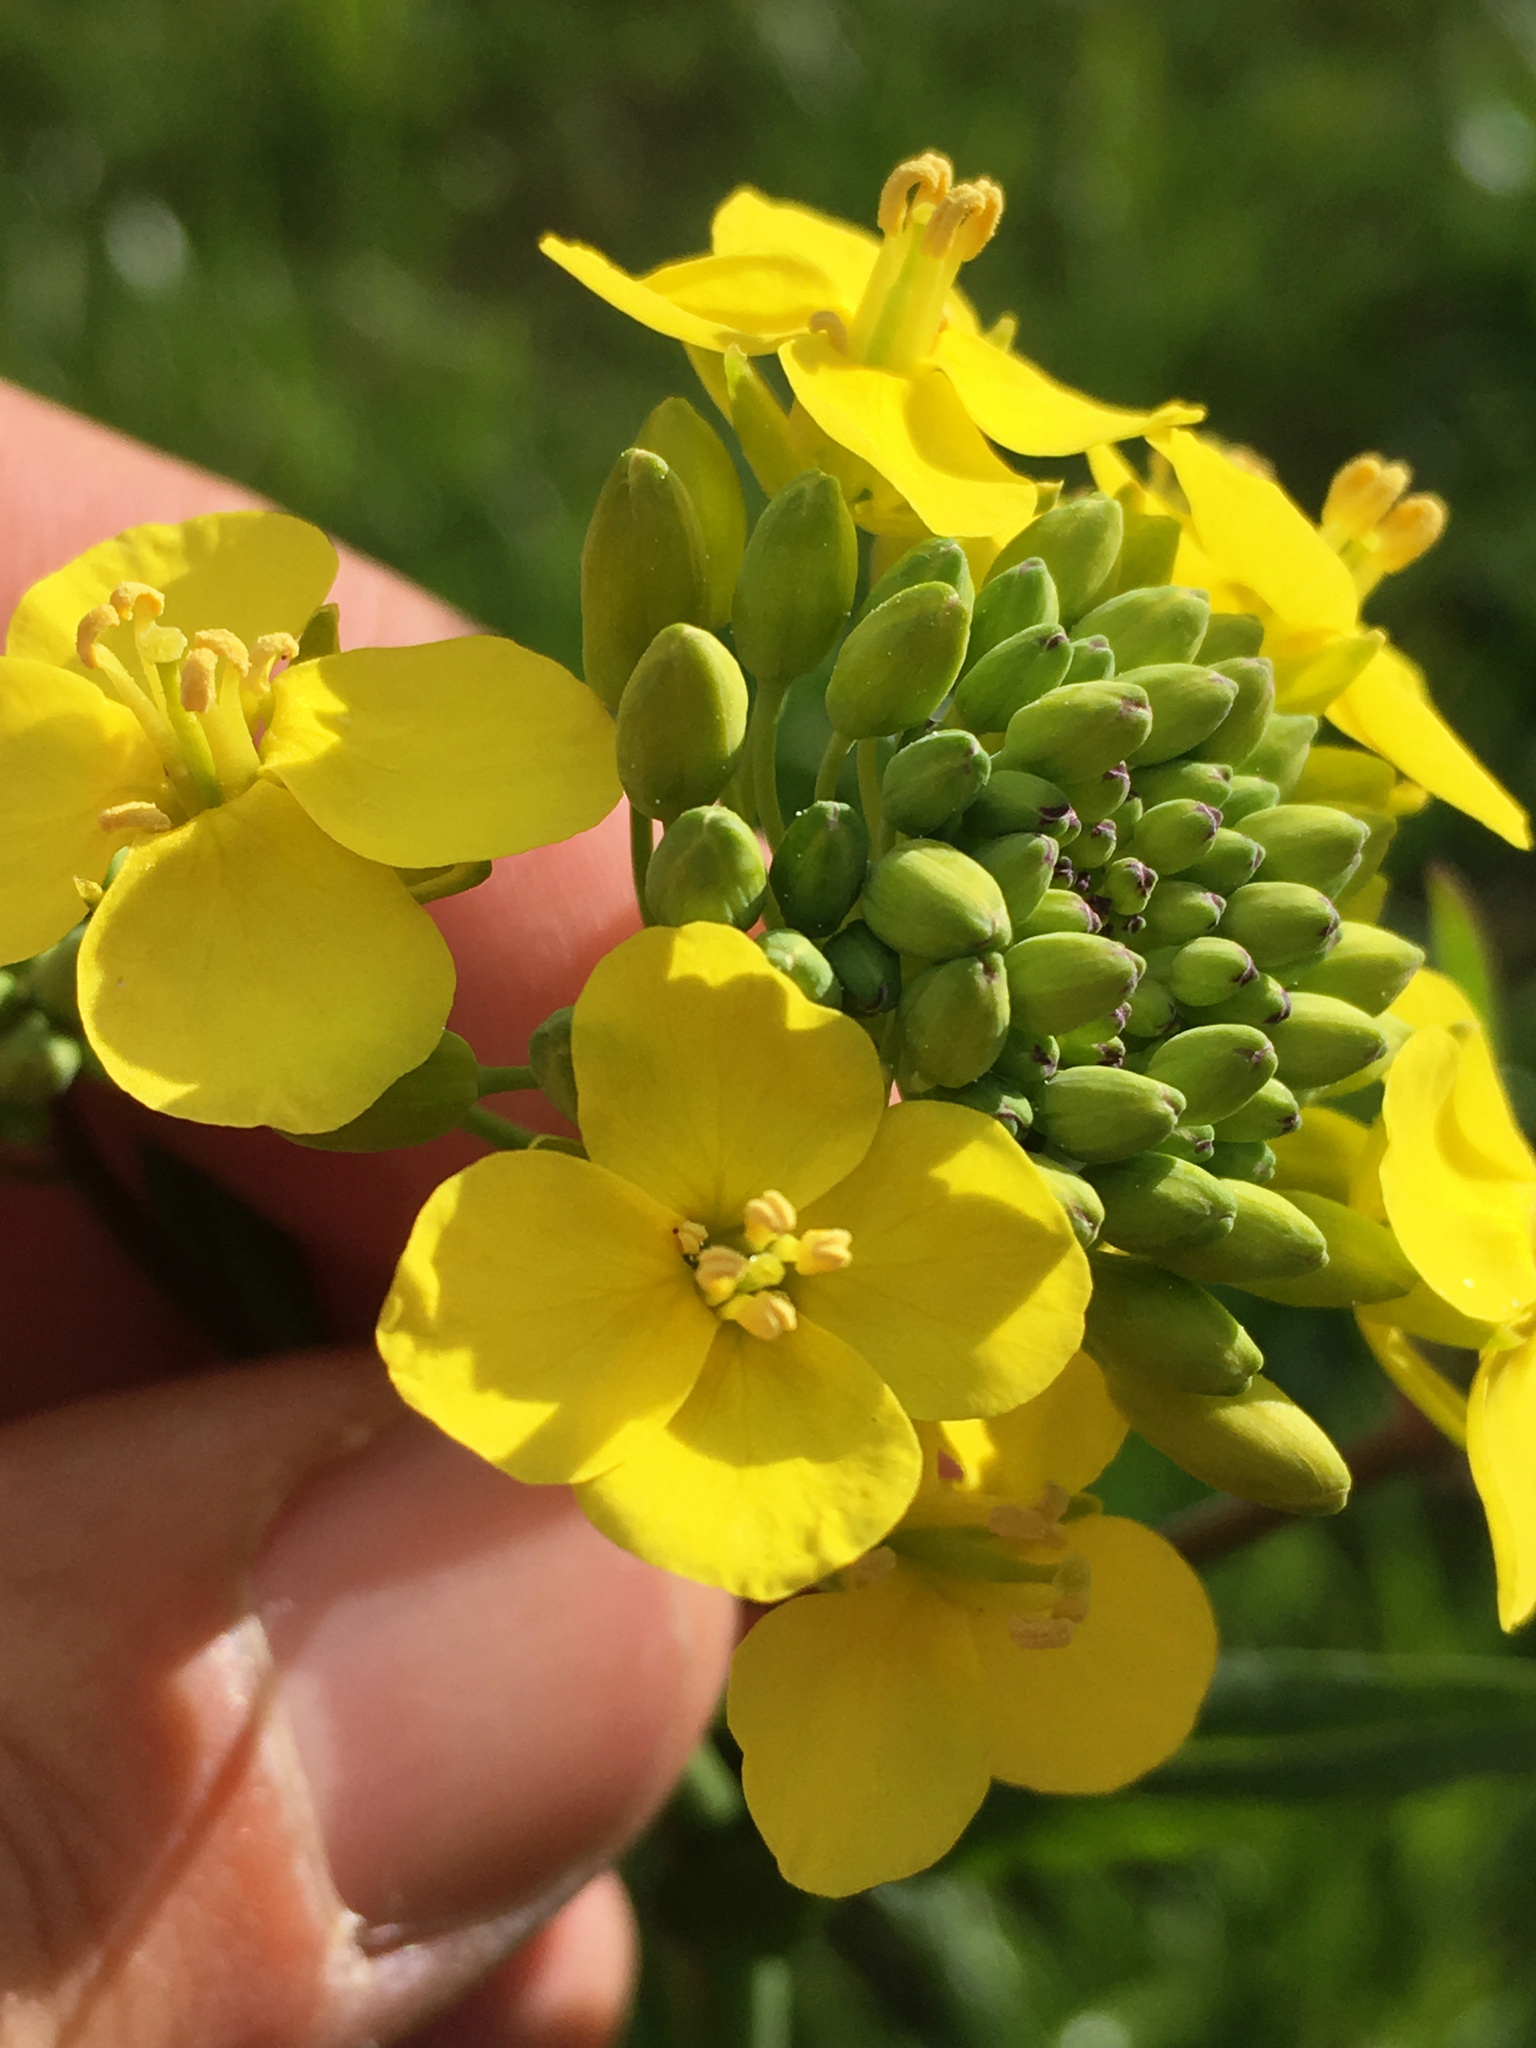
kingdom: Plantae
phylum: Tracheophyta
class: Magnoliopsida
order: Brassicales
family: Brassicaceae
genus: Brassica
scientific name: Brassica oleracea
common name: Cabbage
